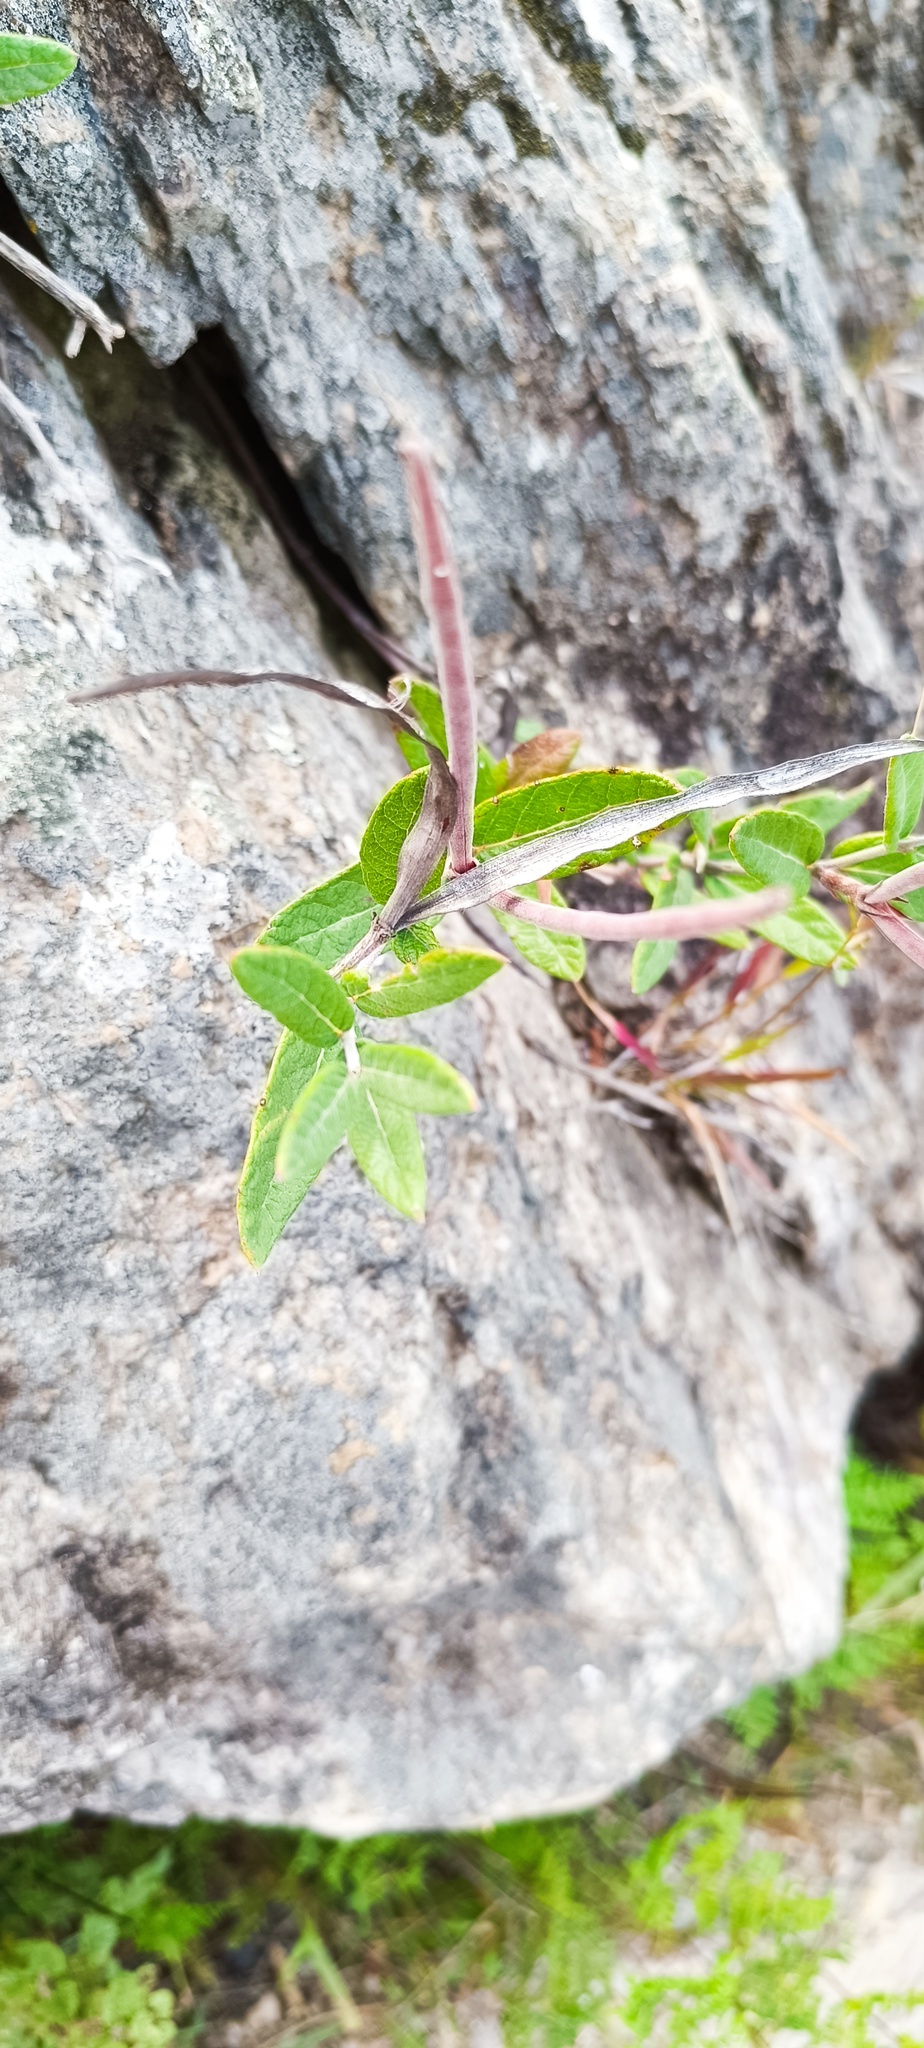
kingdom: Plantae
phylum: Tracheophyta
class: Magnoliopsida
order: Gentianales
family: Apocynaceae
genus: Mandevilla
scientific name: Mandevilla hypoleuca
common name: Davis mountain rocktrumpet
